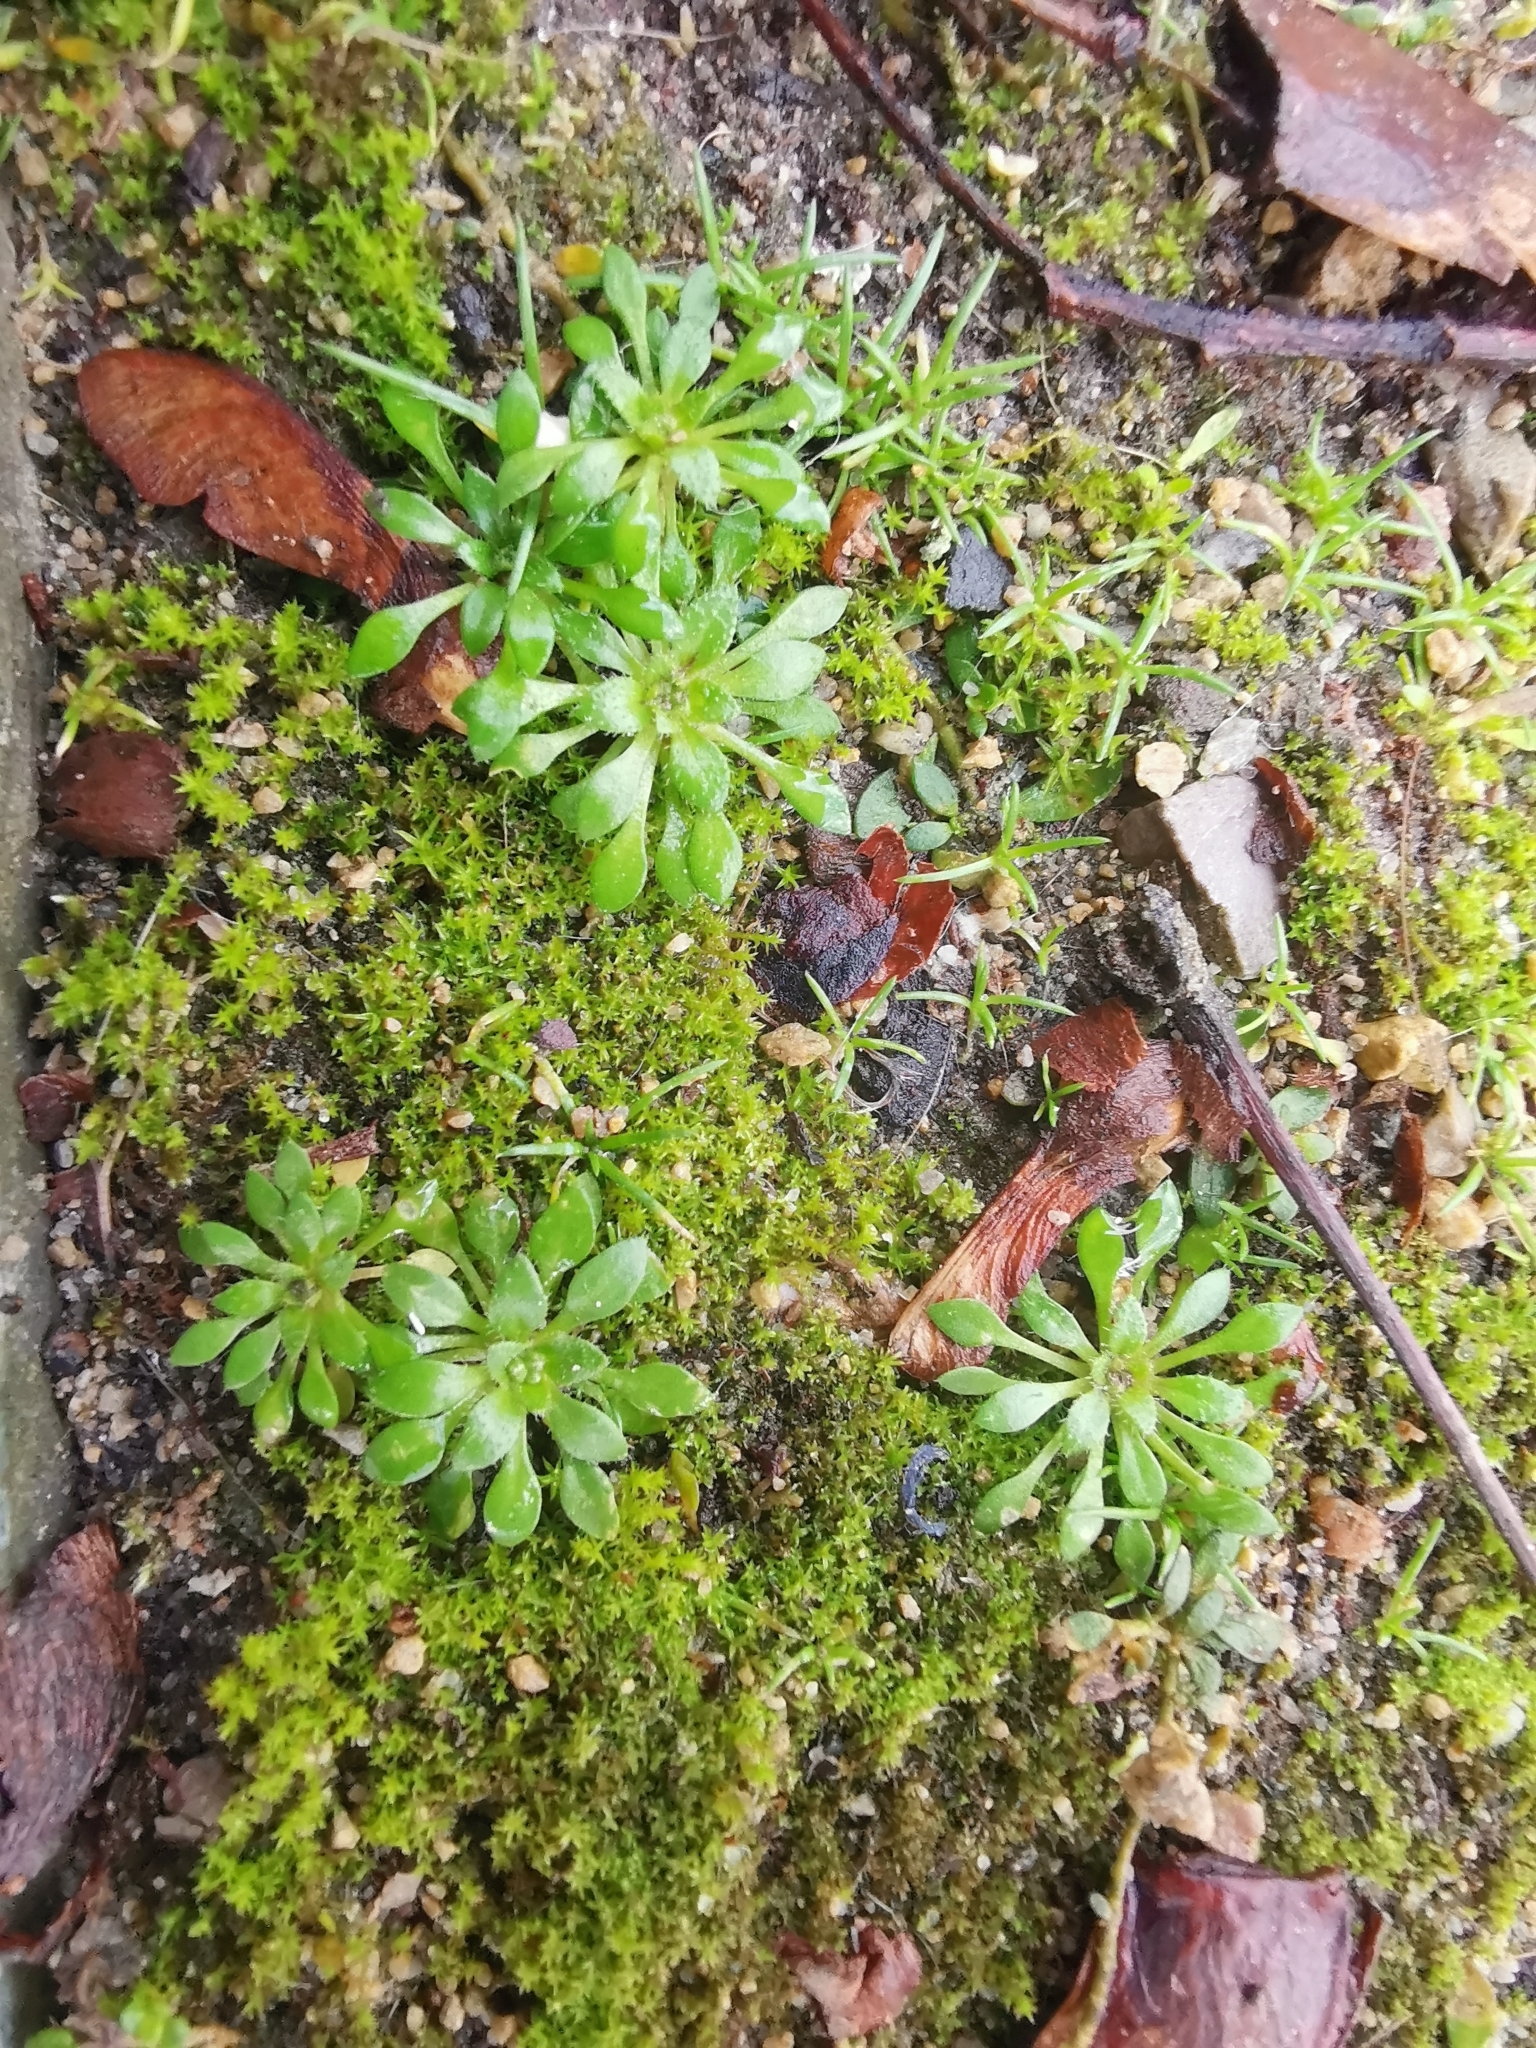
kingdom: Plantae
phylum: Tracheophyta
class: Magnoliopsida
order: Brassicales
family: Brassicaceae
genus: Draba
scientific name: Draba verna
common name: Spring draba
